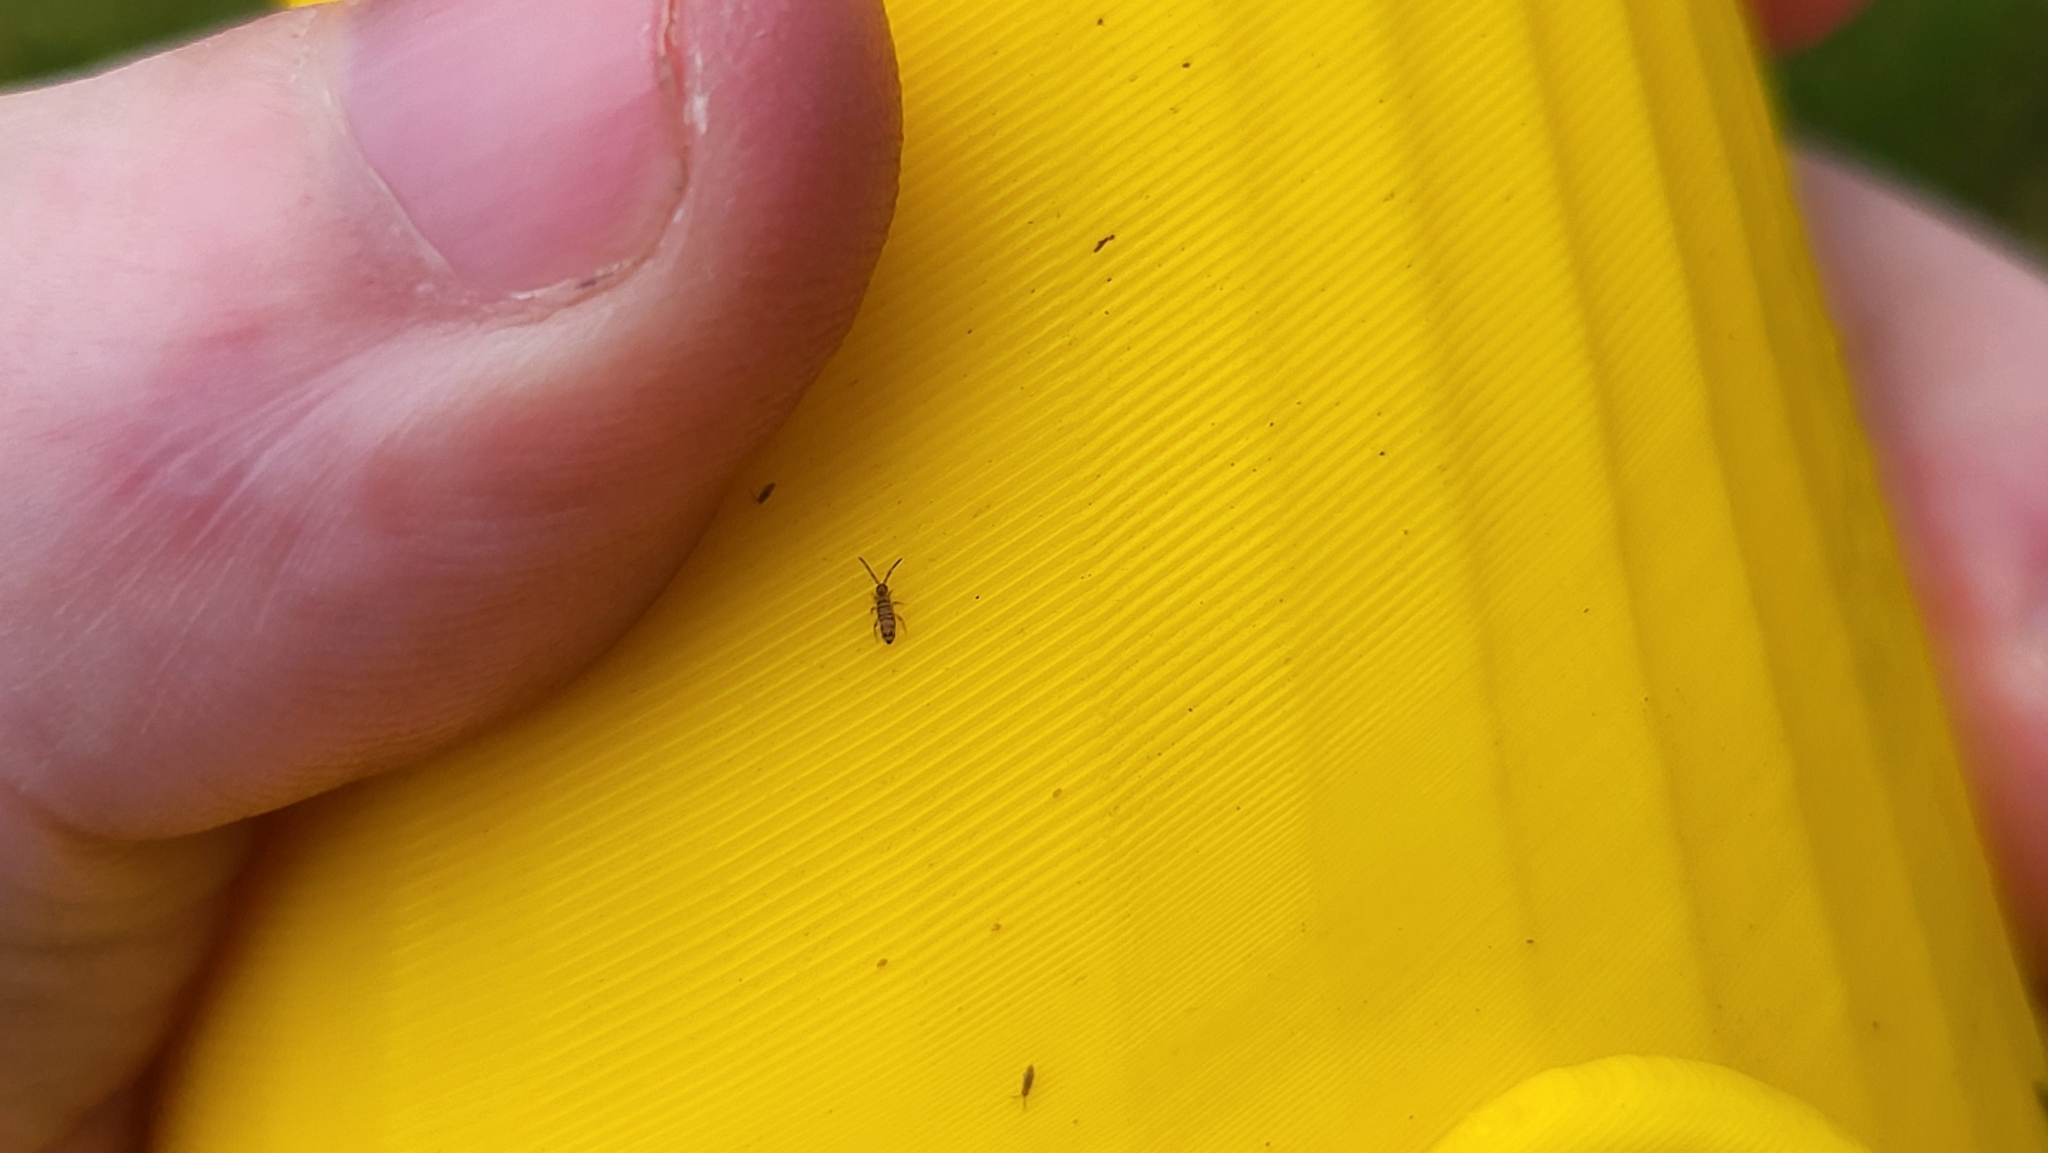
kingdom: Animalia
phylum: Arthropoda
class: Collembola
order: Entomobryomorpha
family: Entomobryidae
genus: Entomobrya
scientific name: Entomobrya multifasciata
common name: Springtail
